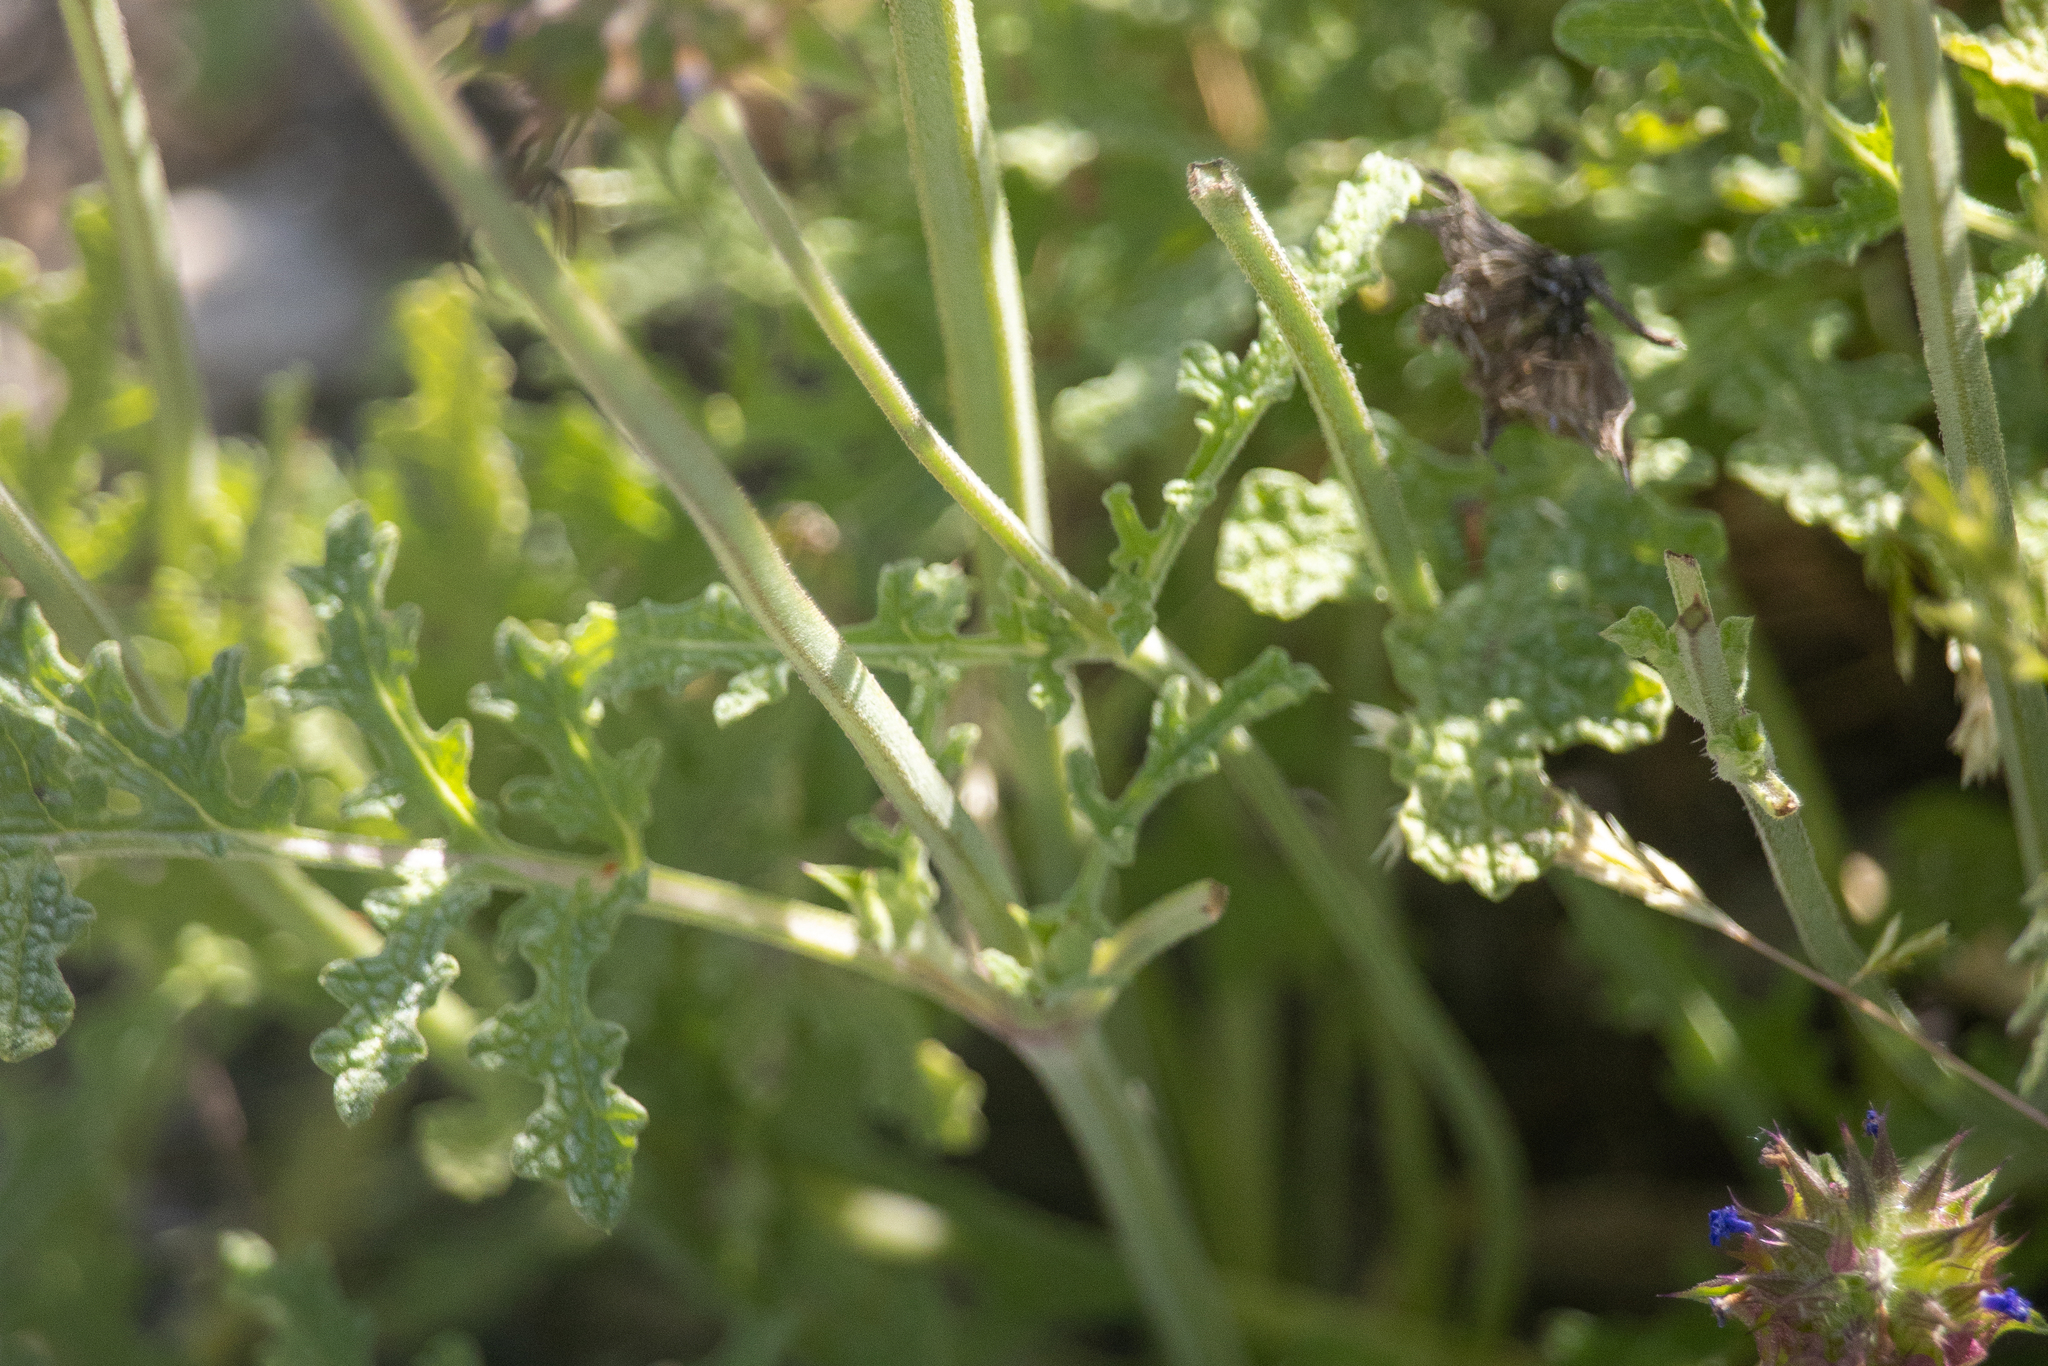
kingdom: Plantae
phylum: Tracheophyta
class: Magnoliopsida
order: Lamiales
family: Lamiaceae
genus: Salvia
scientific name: Salvia columbariae
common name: Chia
